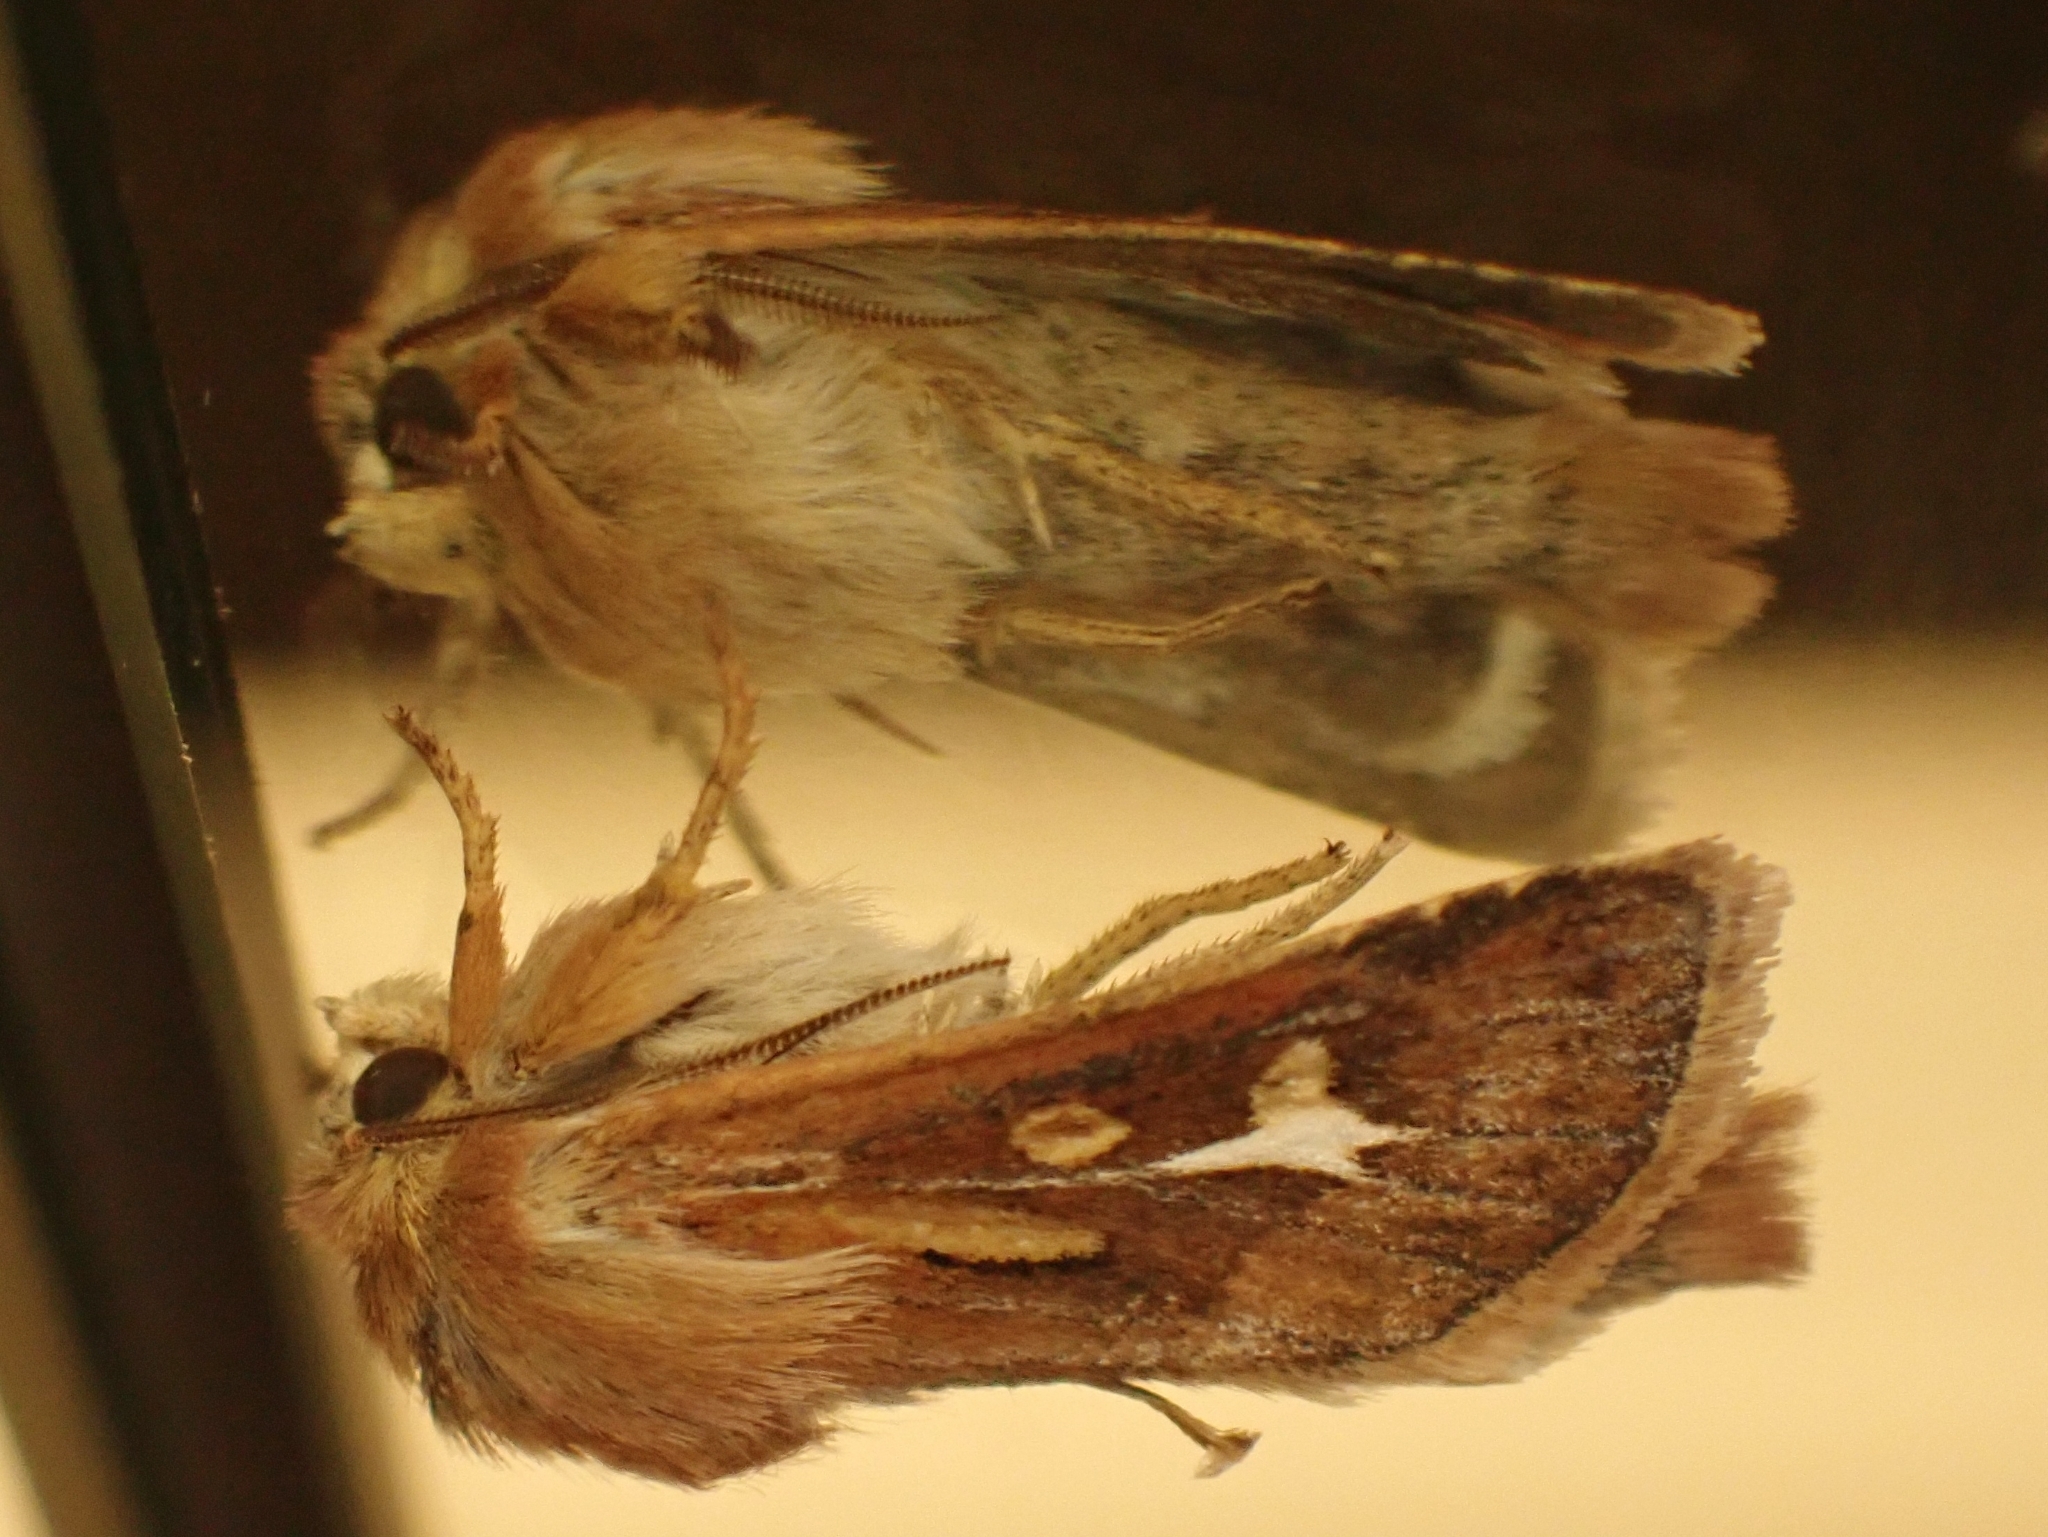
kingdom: Animalia
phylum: Arthropoda
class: Insecta
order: Lepidoptera
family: Noctuidae
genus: Cerapteryx
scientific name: Cerapteryx graminis
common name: Antler moth
